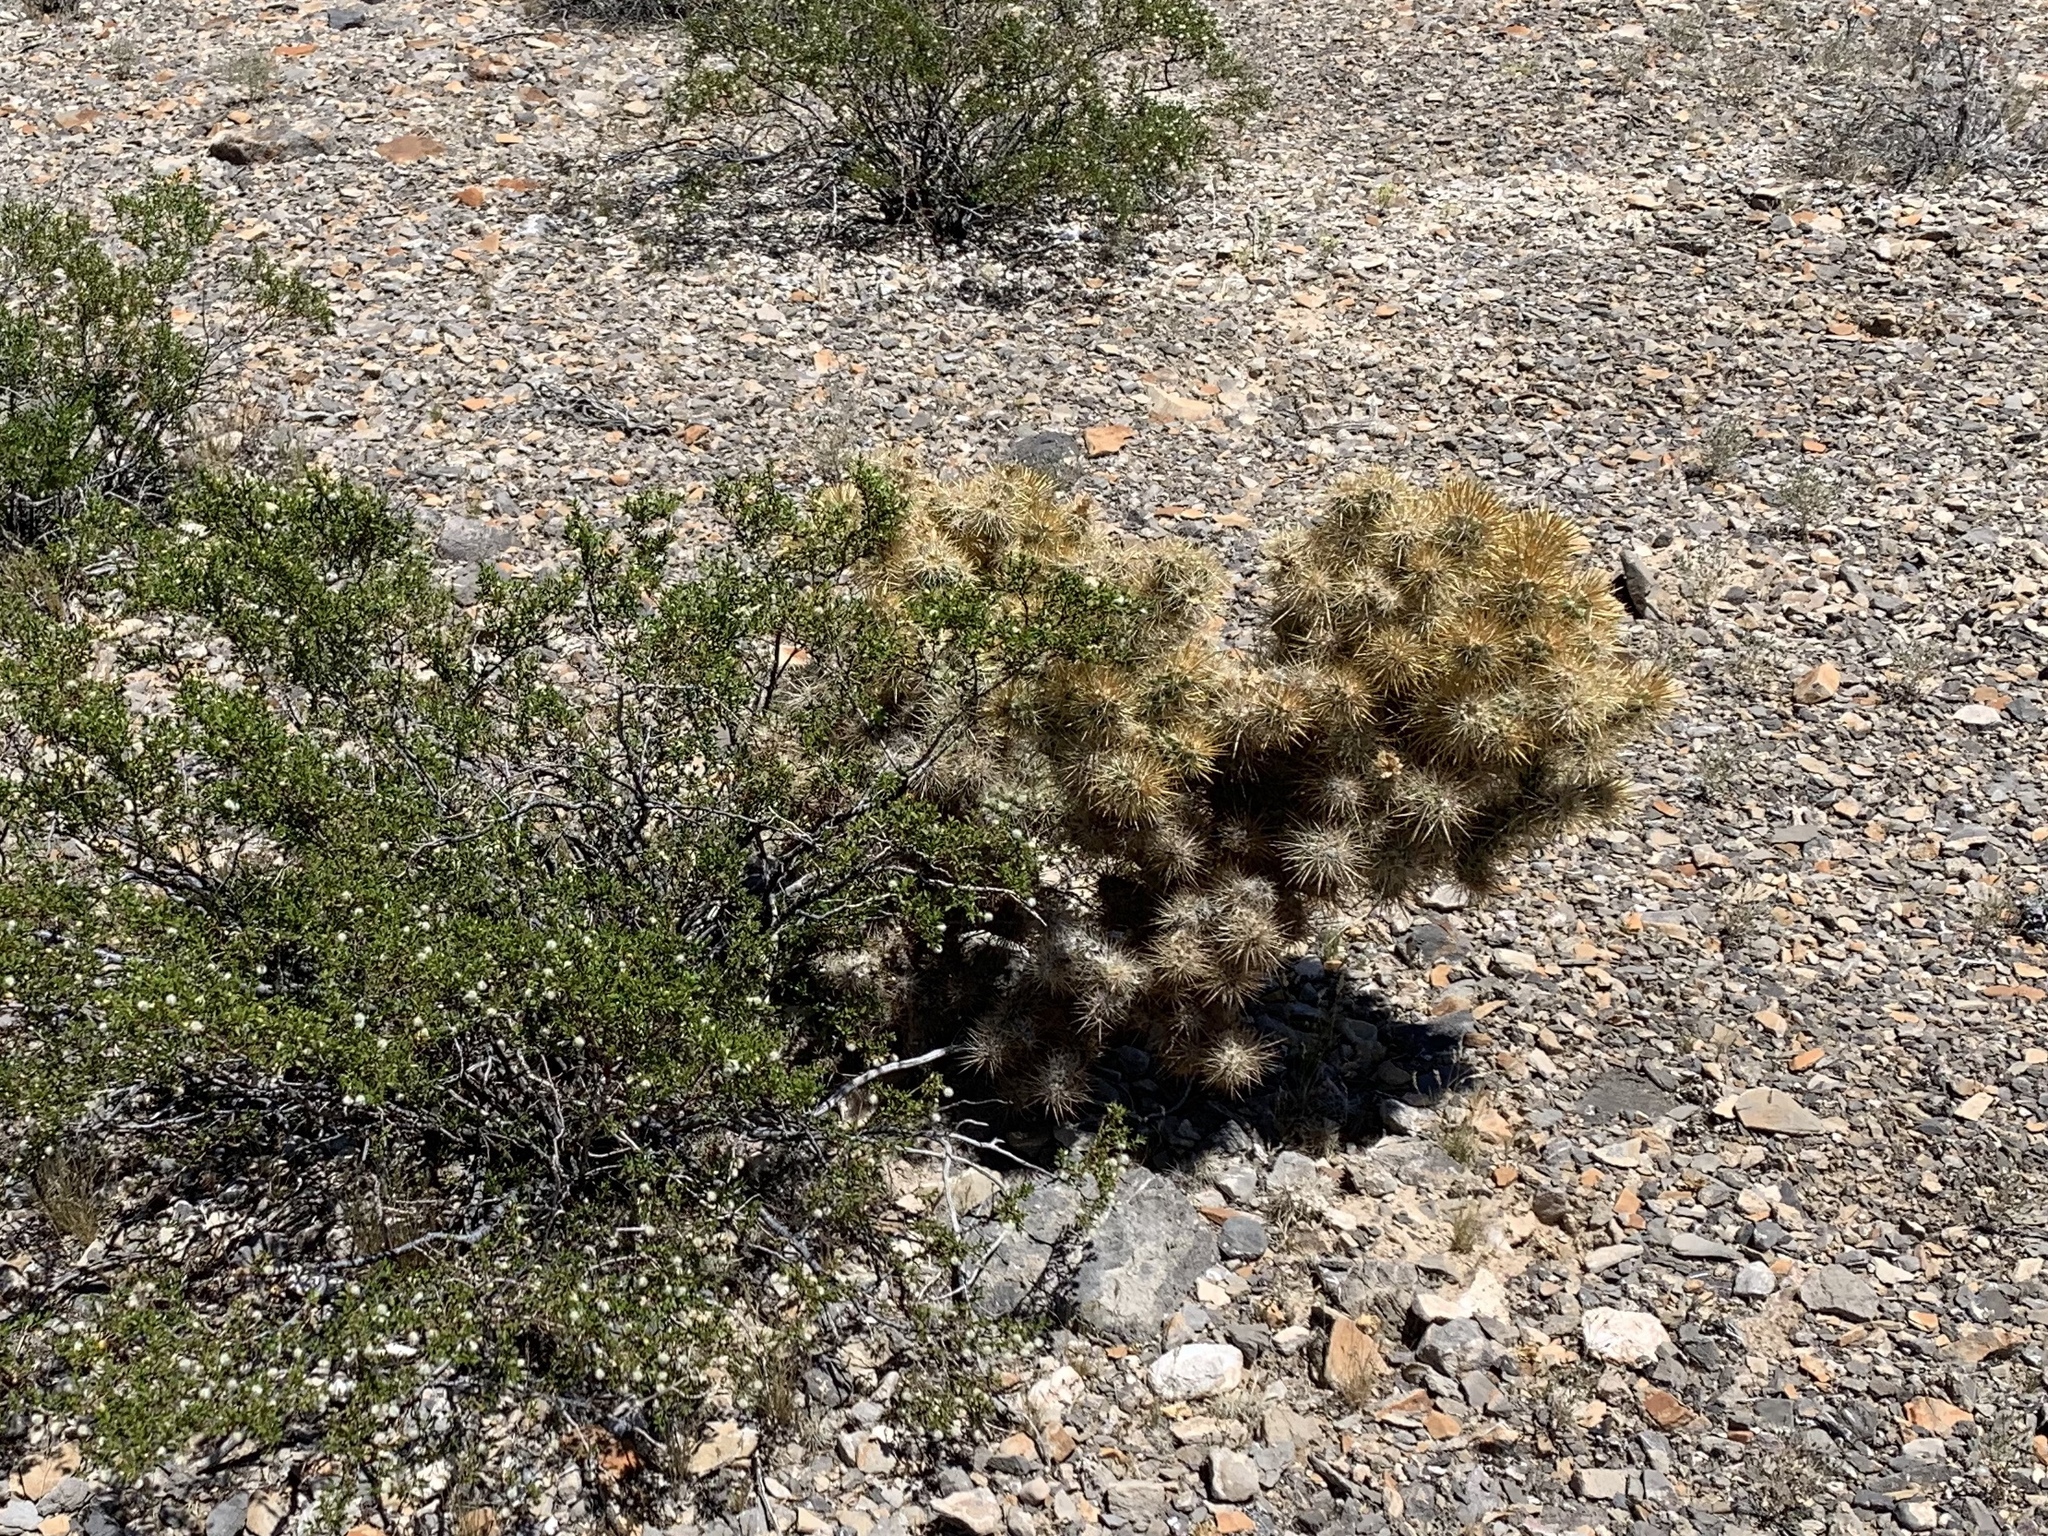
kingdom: Plantae
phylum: Tracheophyta
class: Magnoliopsida
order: Caryophyllales
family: Cactaceae
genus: Cylindropuntia
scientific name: Cylindropuntia echinocarpa
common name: Ground cholla
